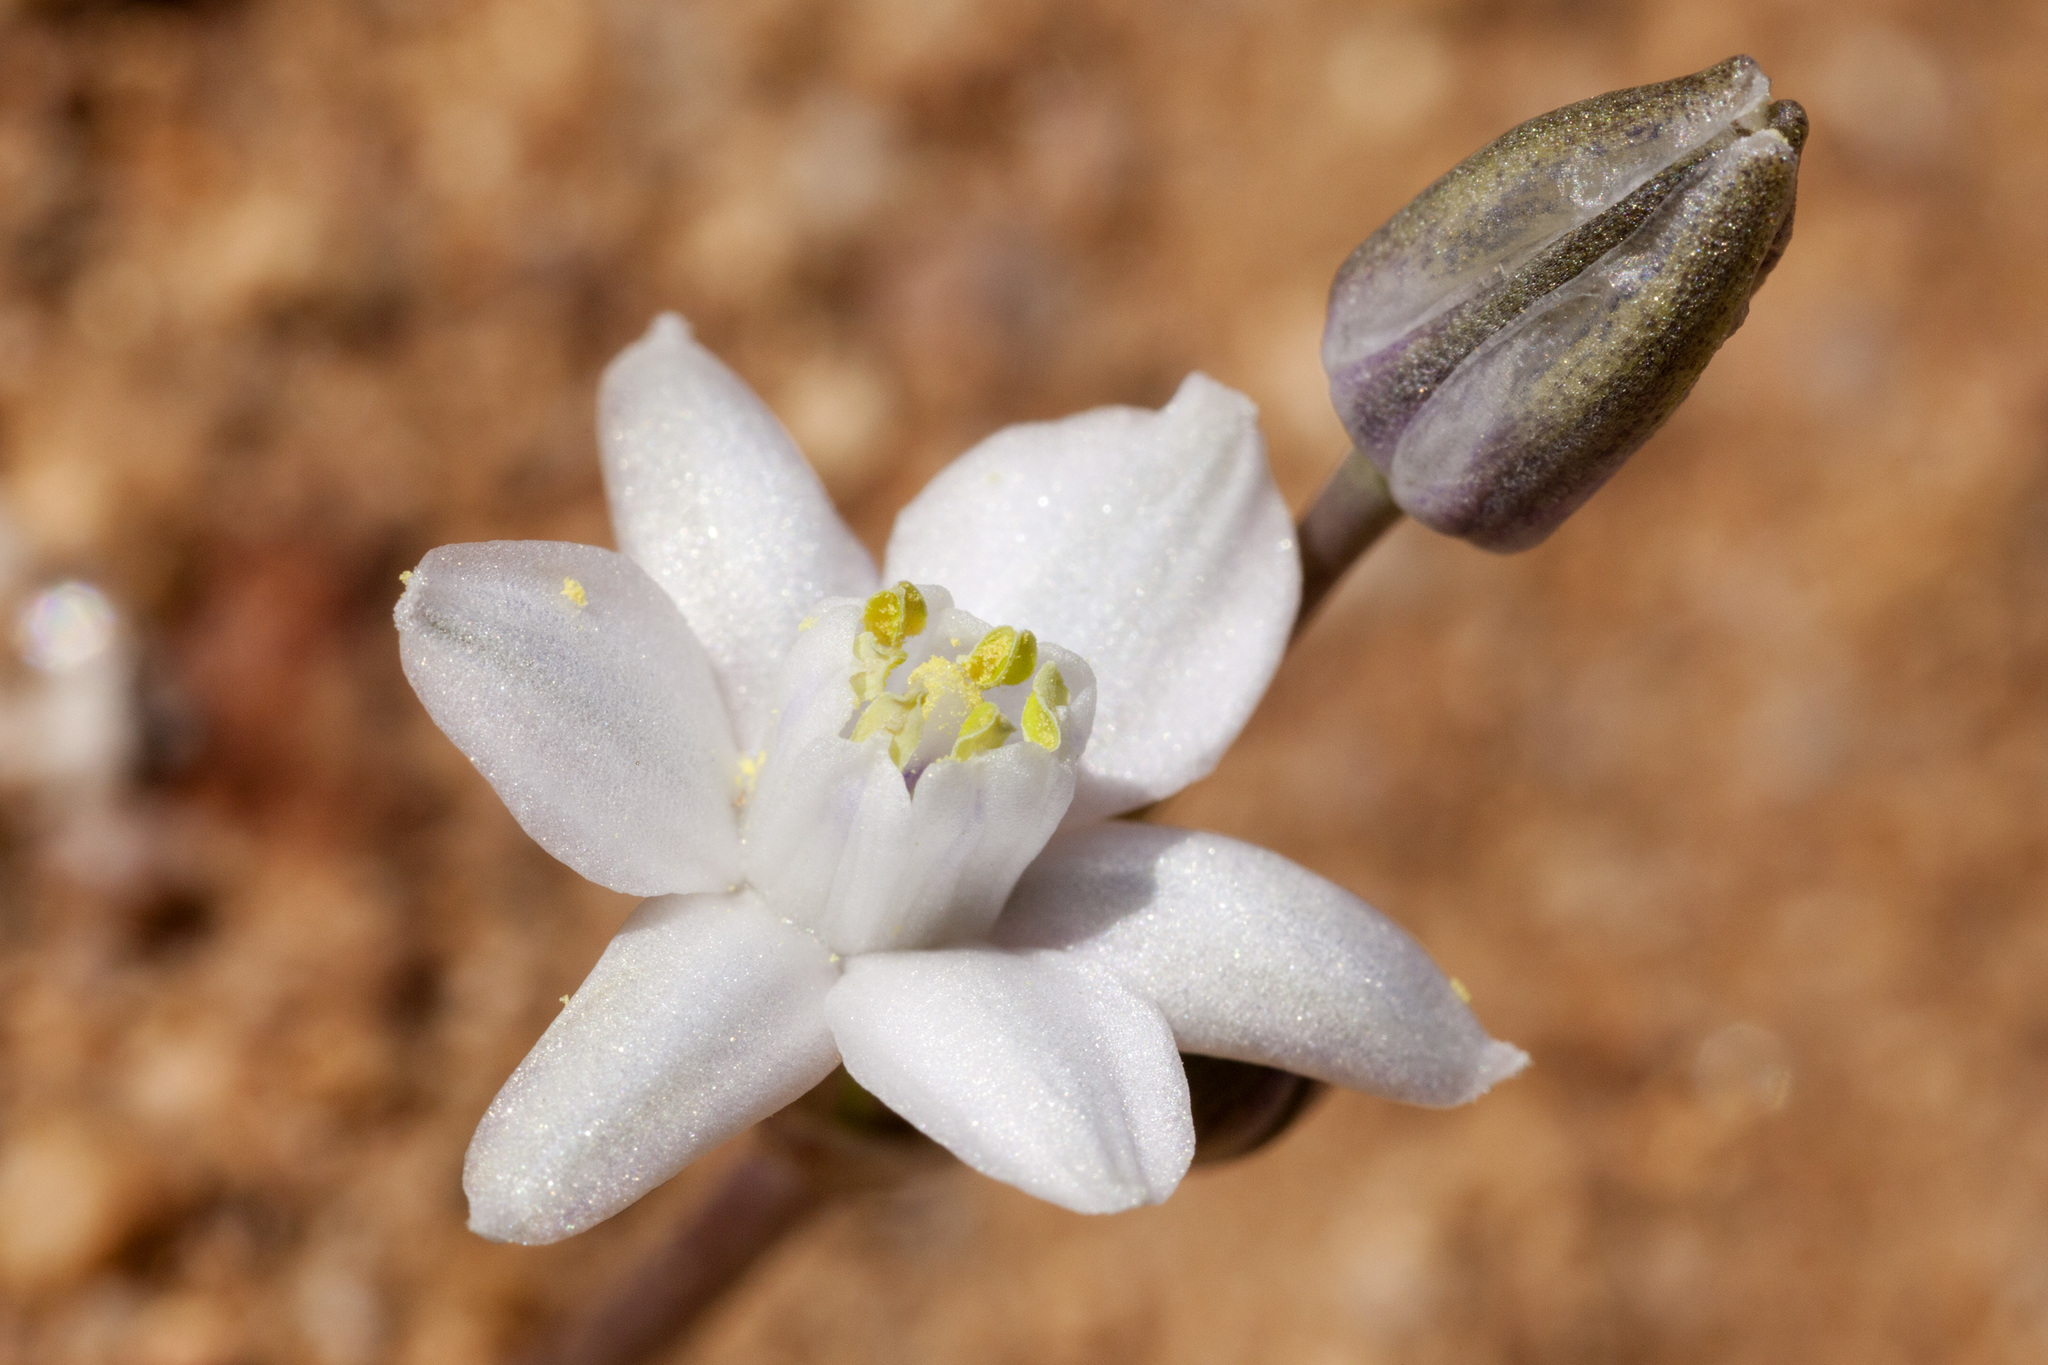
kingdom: Plantae
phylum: Tracheophyta
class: Liliopsida
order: Asparagales
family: Asparagaceae
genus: Muilla
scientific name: Muilla lordsburgana
